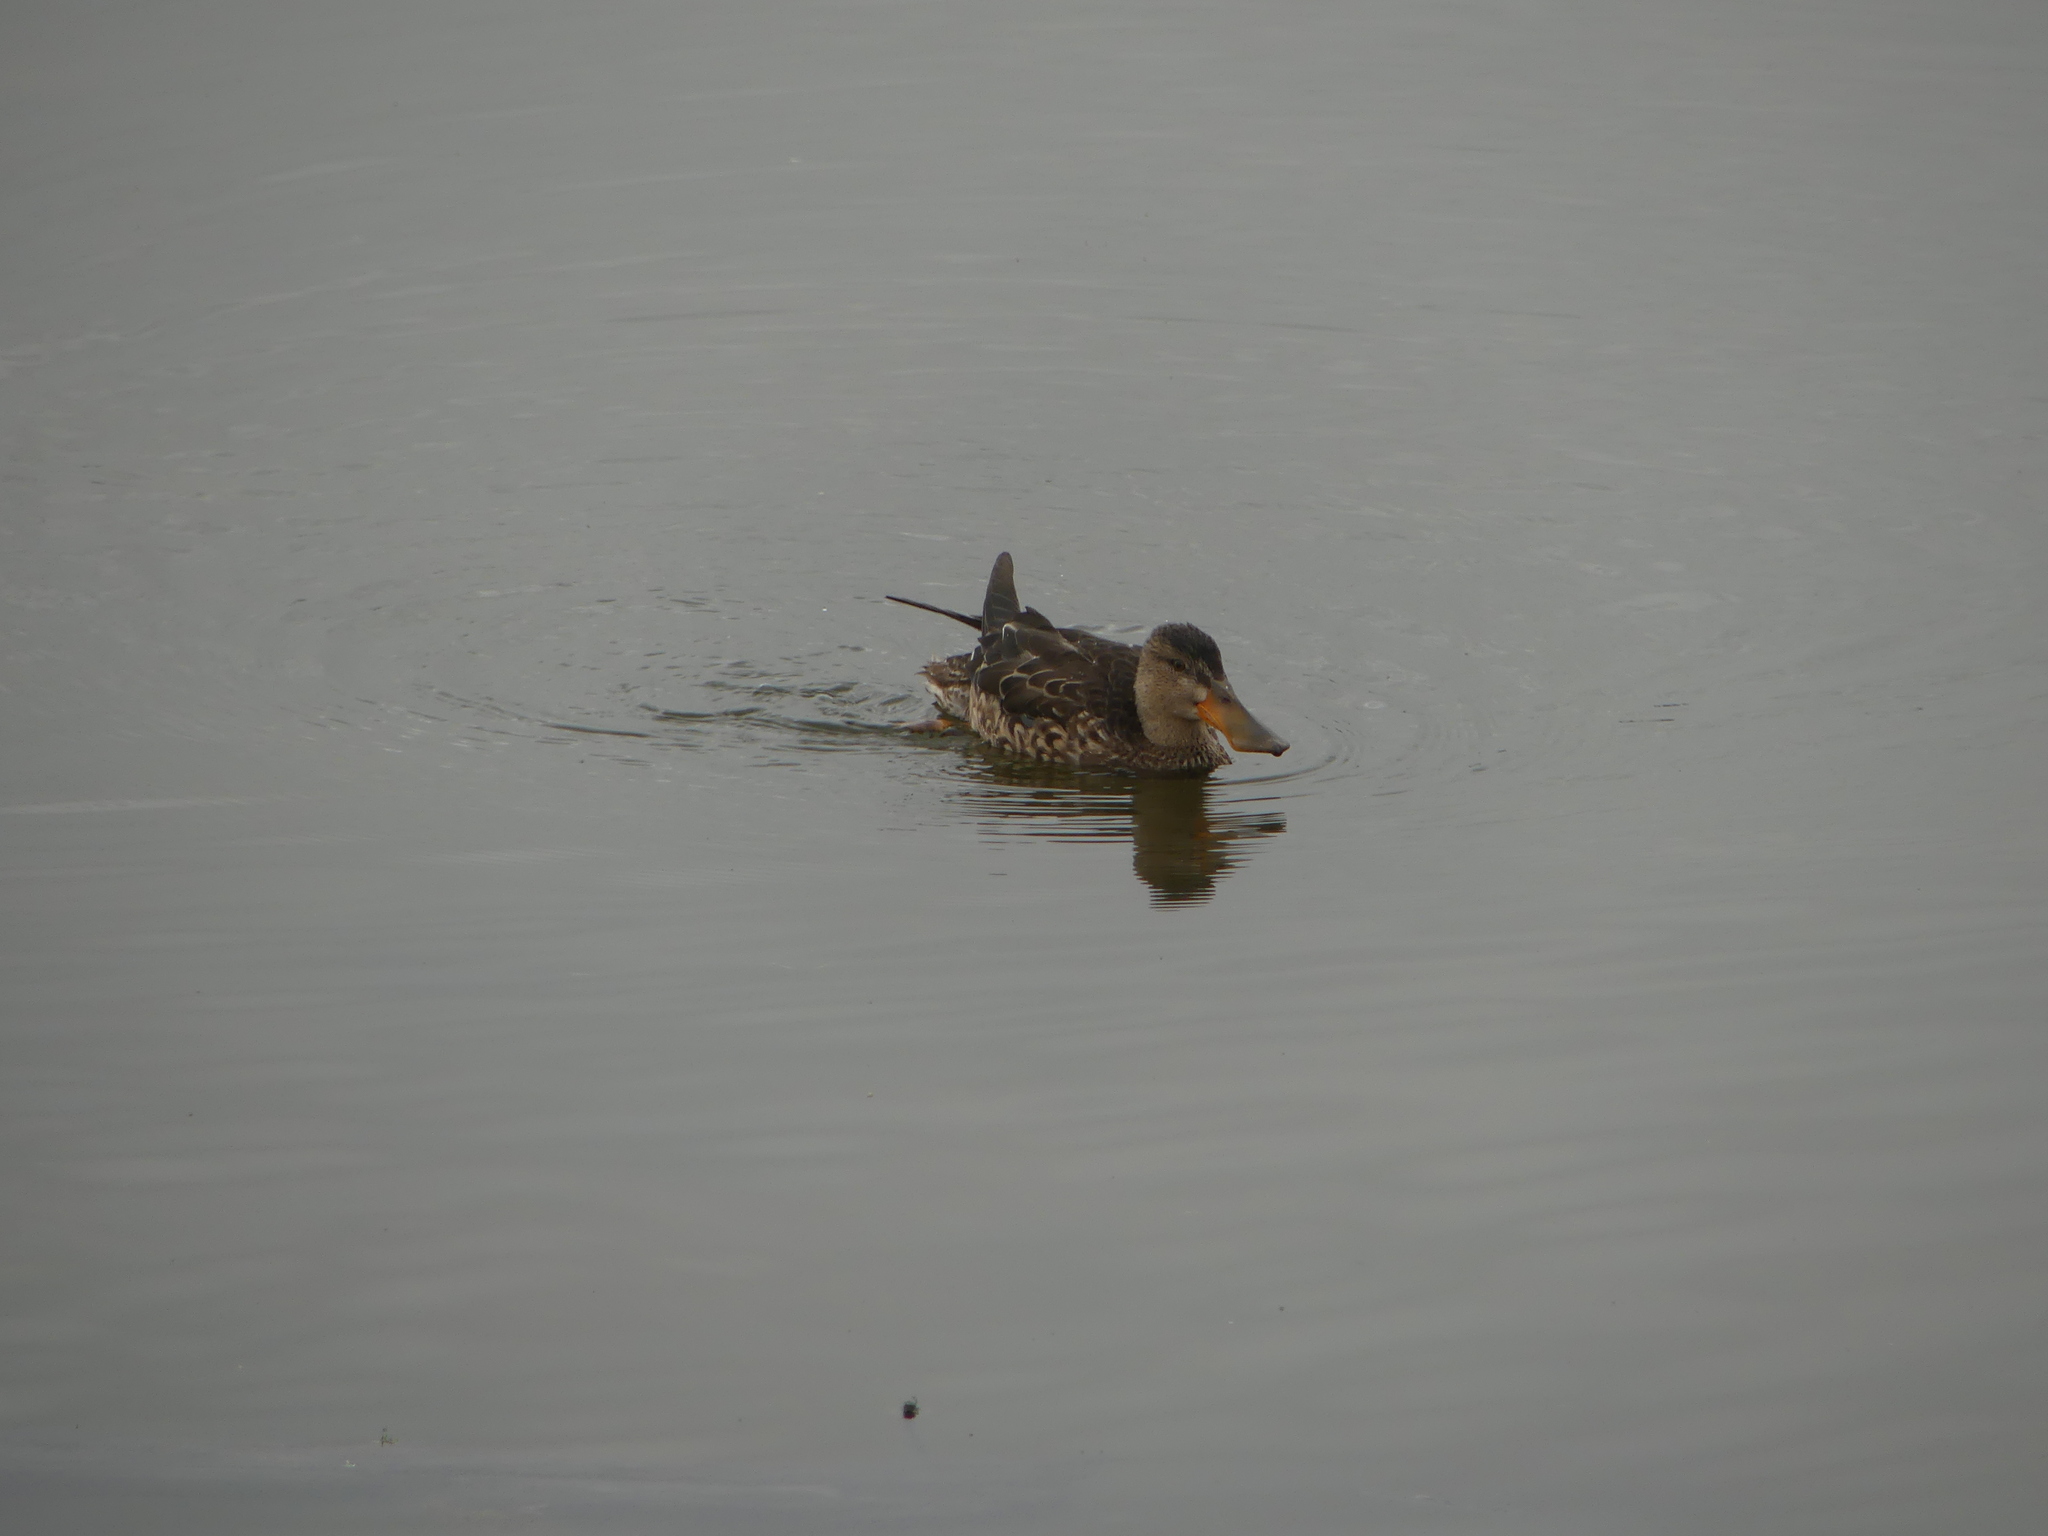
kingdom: Animalia
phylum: Chordata
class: Aves
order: Anseriformes
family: Anatidae
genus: Spatula
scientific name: Spatula clypeata
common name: Northern shoveler
